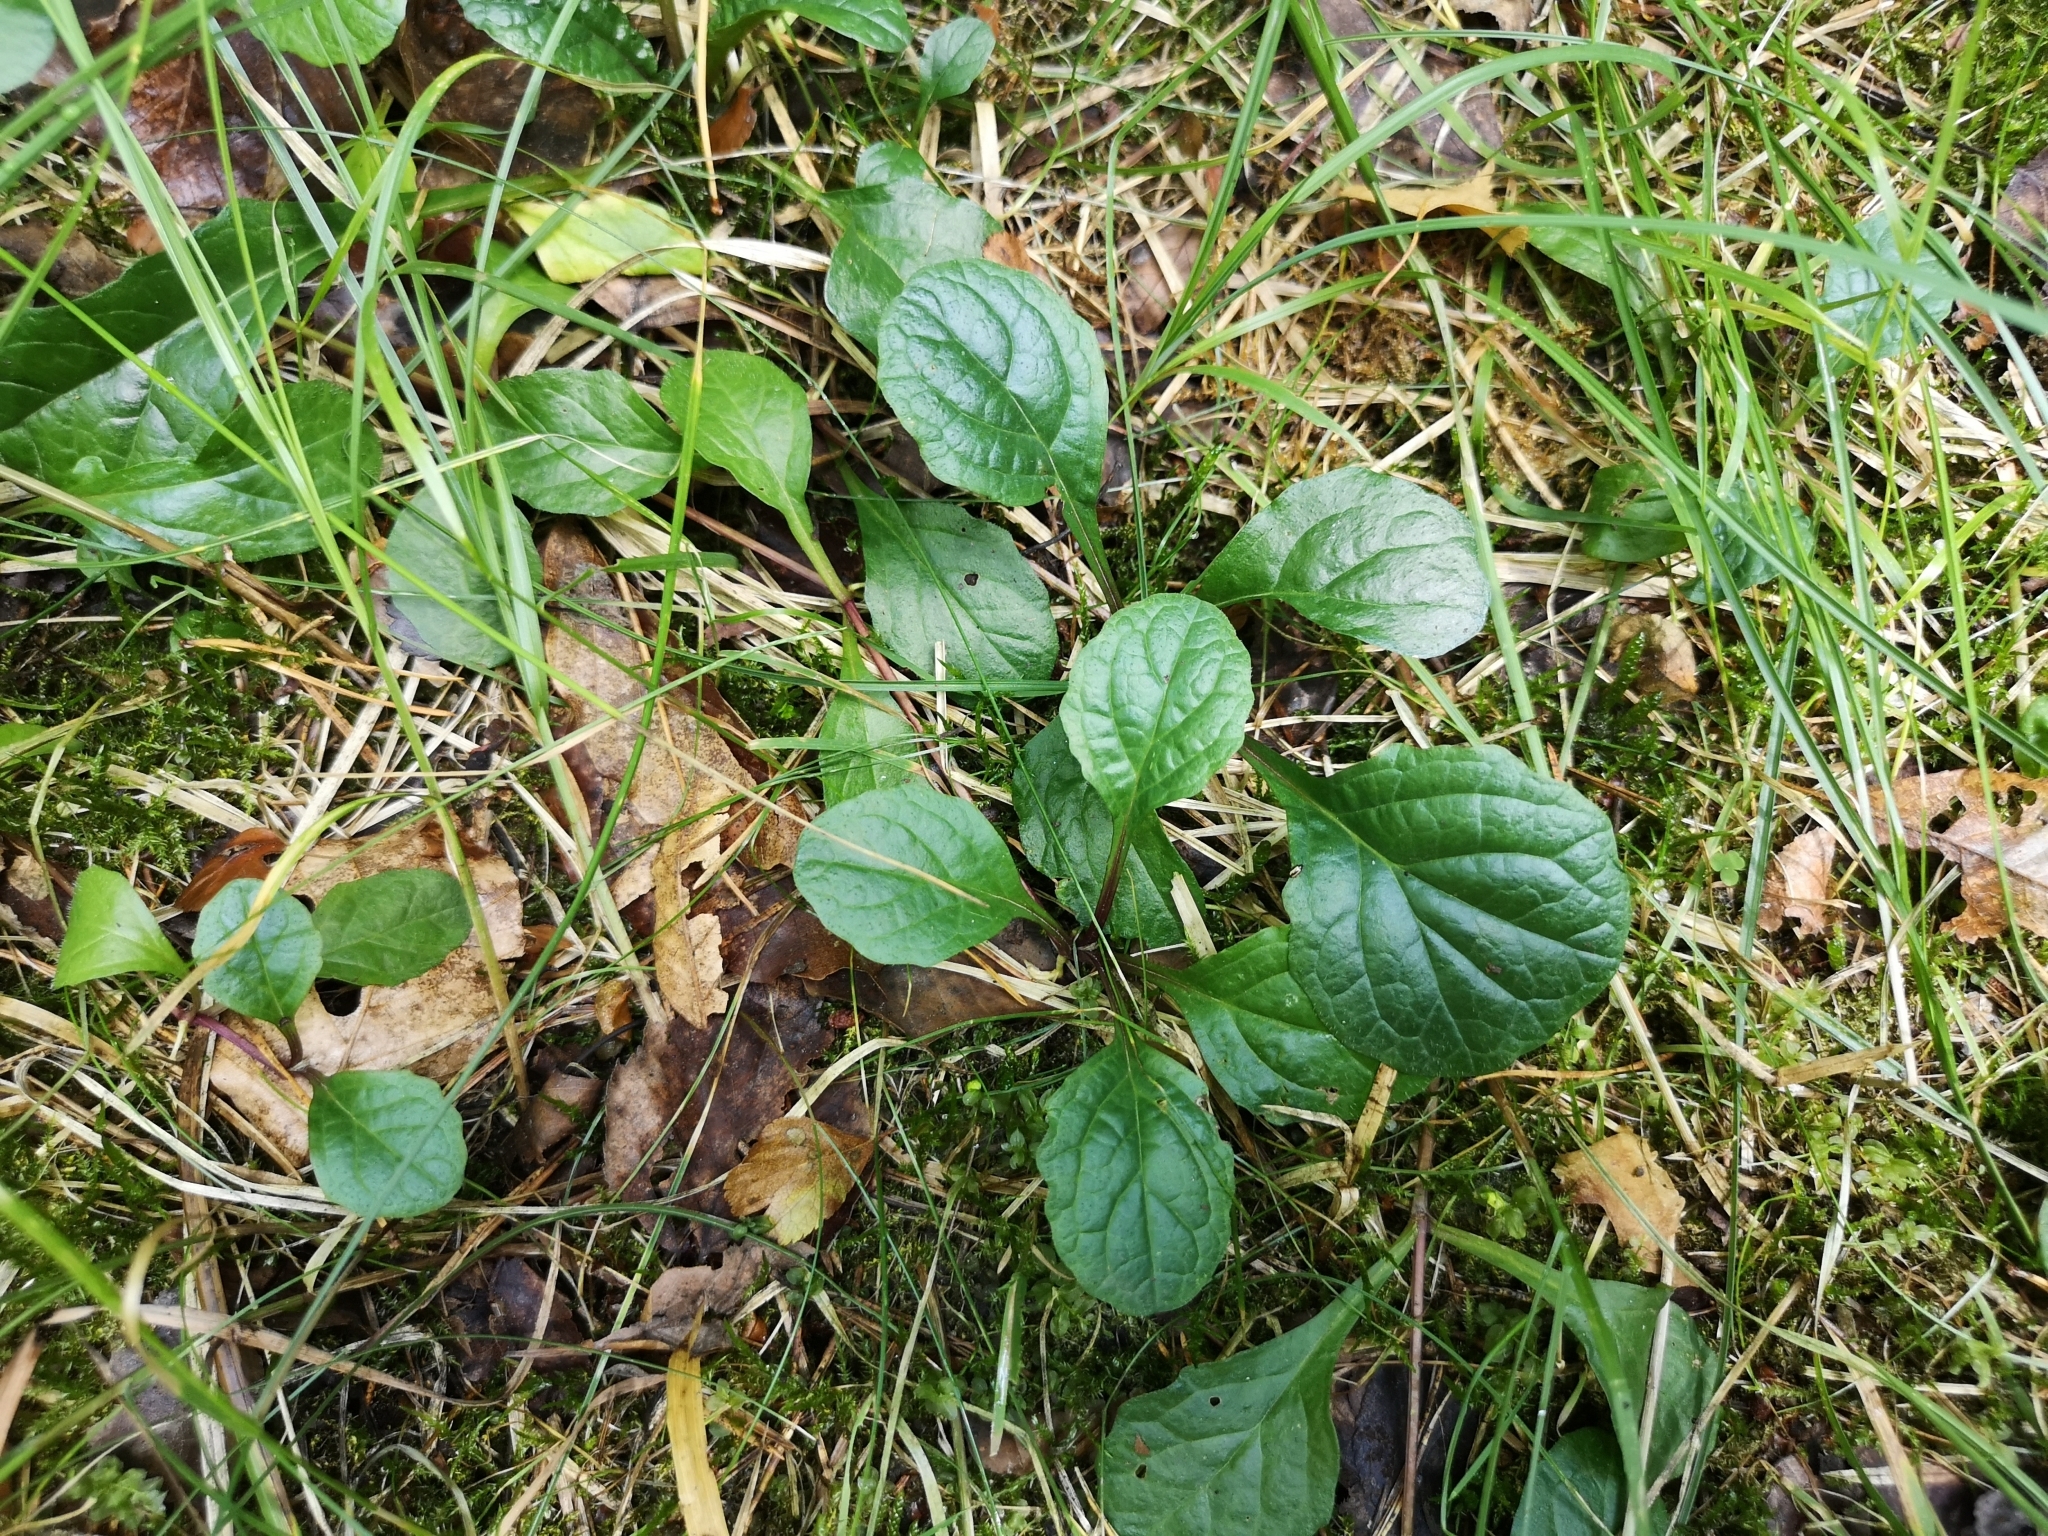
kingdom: Plantae
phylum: Tracheophyta
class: Magnoliopsida
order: Lamiales
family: Lamiaceae
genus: Ajuga
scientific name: Ajuga reptans
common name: Bugle
